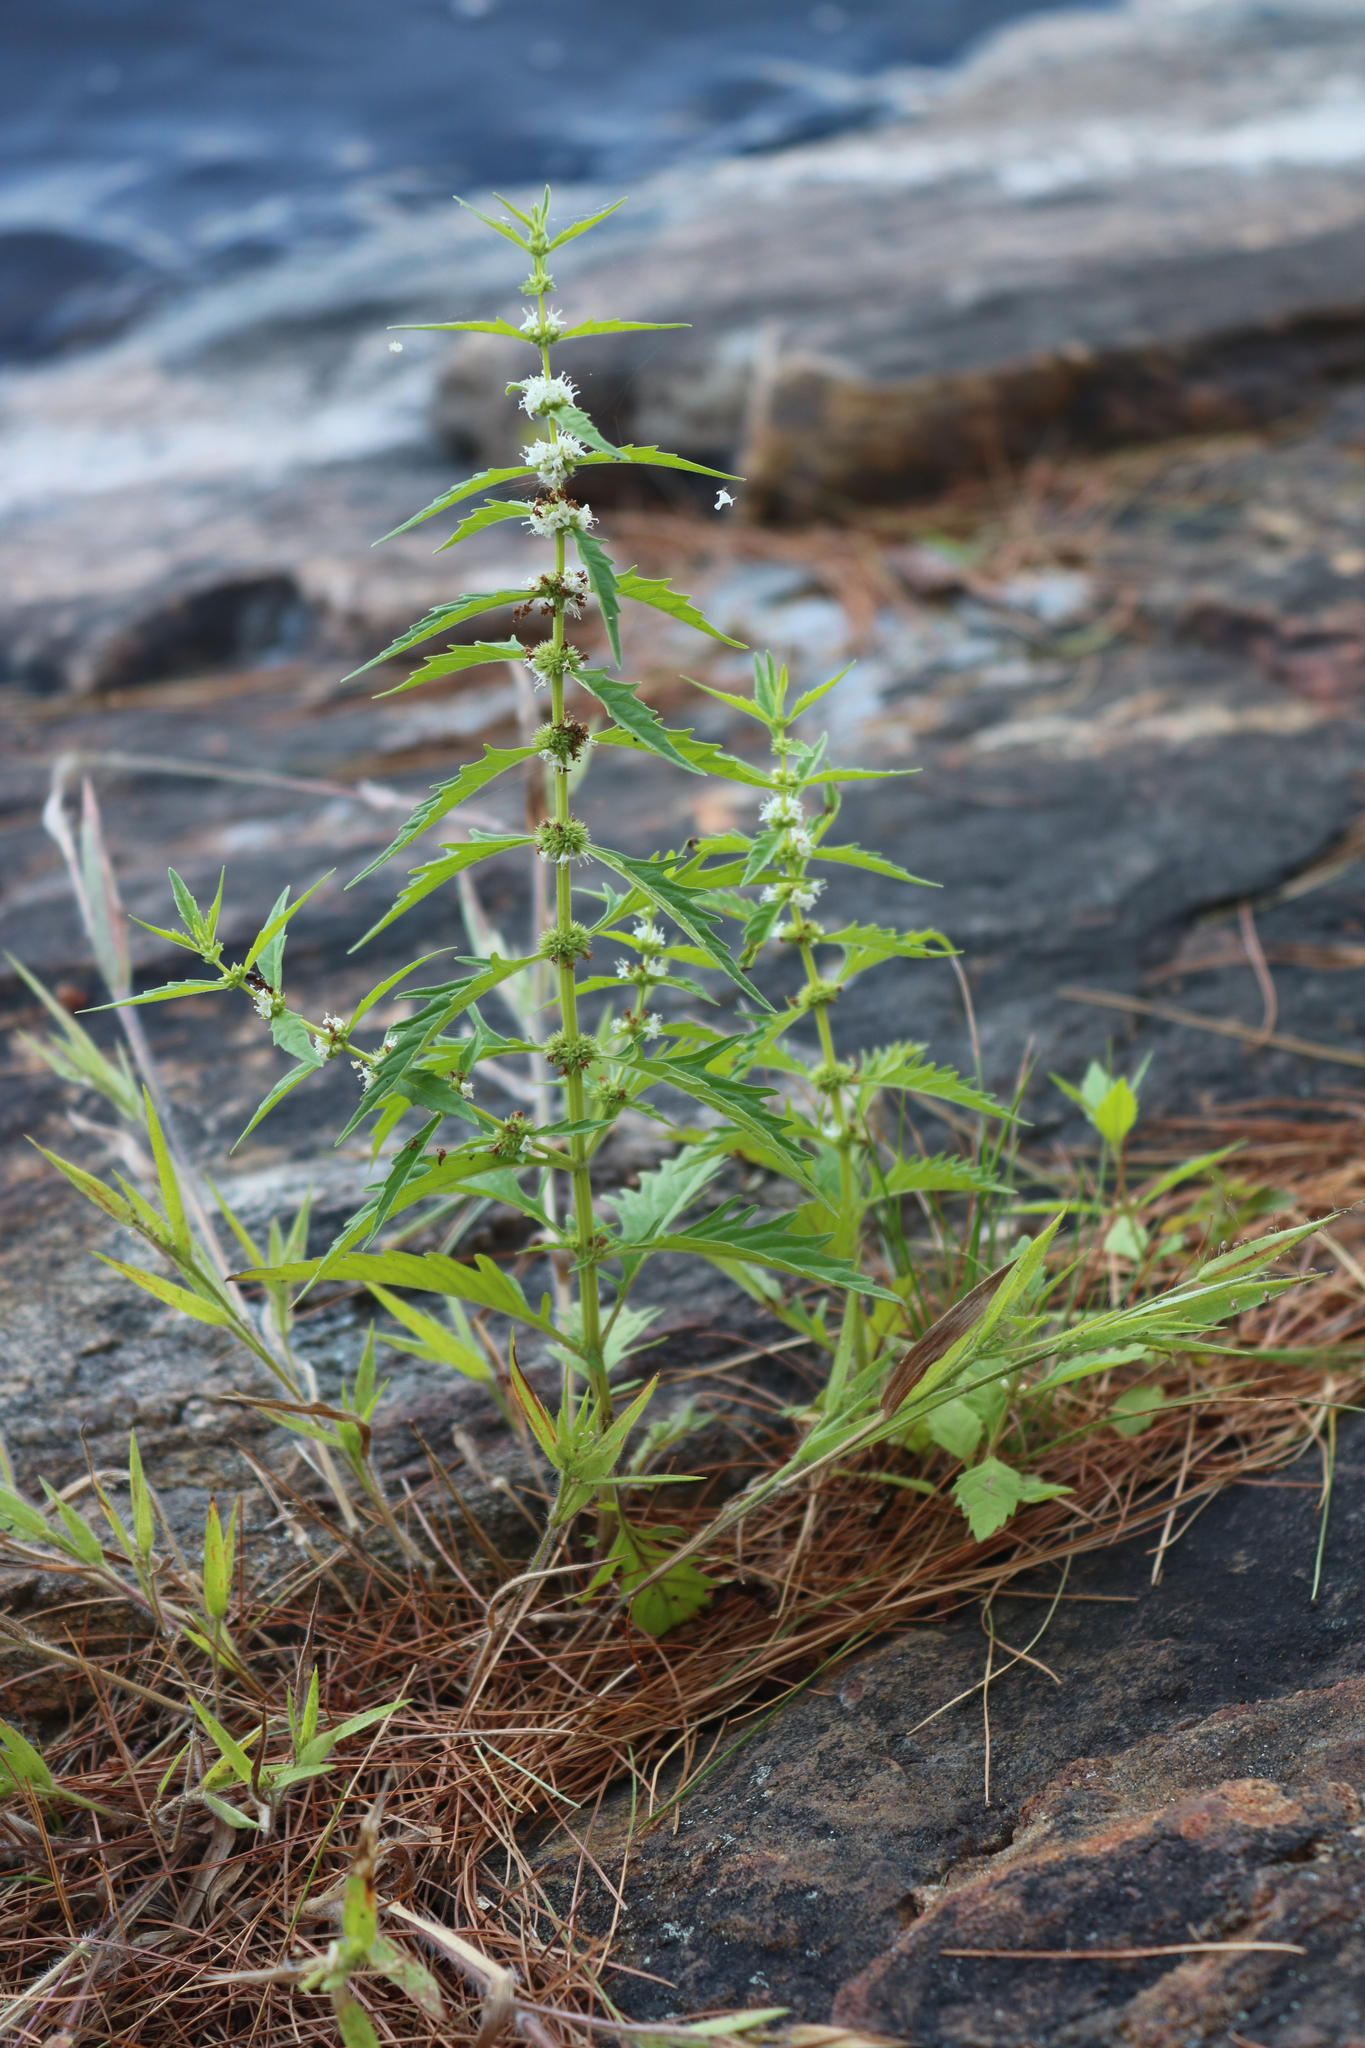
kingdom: Plantae
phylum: Tracheophyta
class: Magnoliopsida
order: Lamiales
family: Lamiaceae
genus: Lycopus
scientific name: Lycopus americanus
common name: American bugleweed
